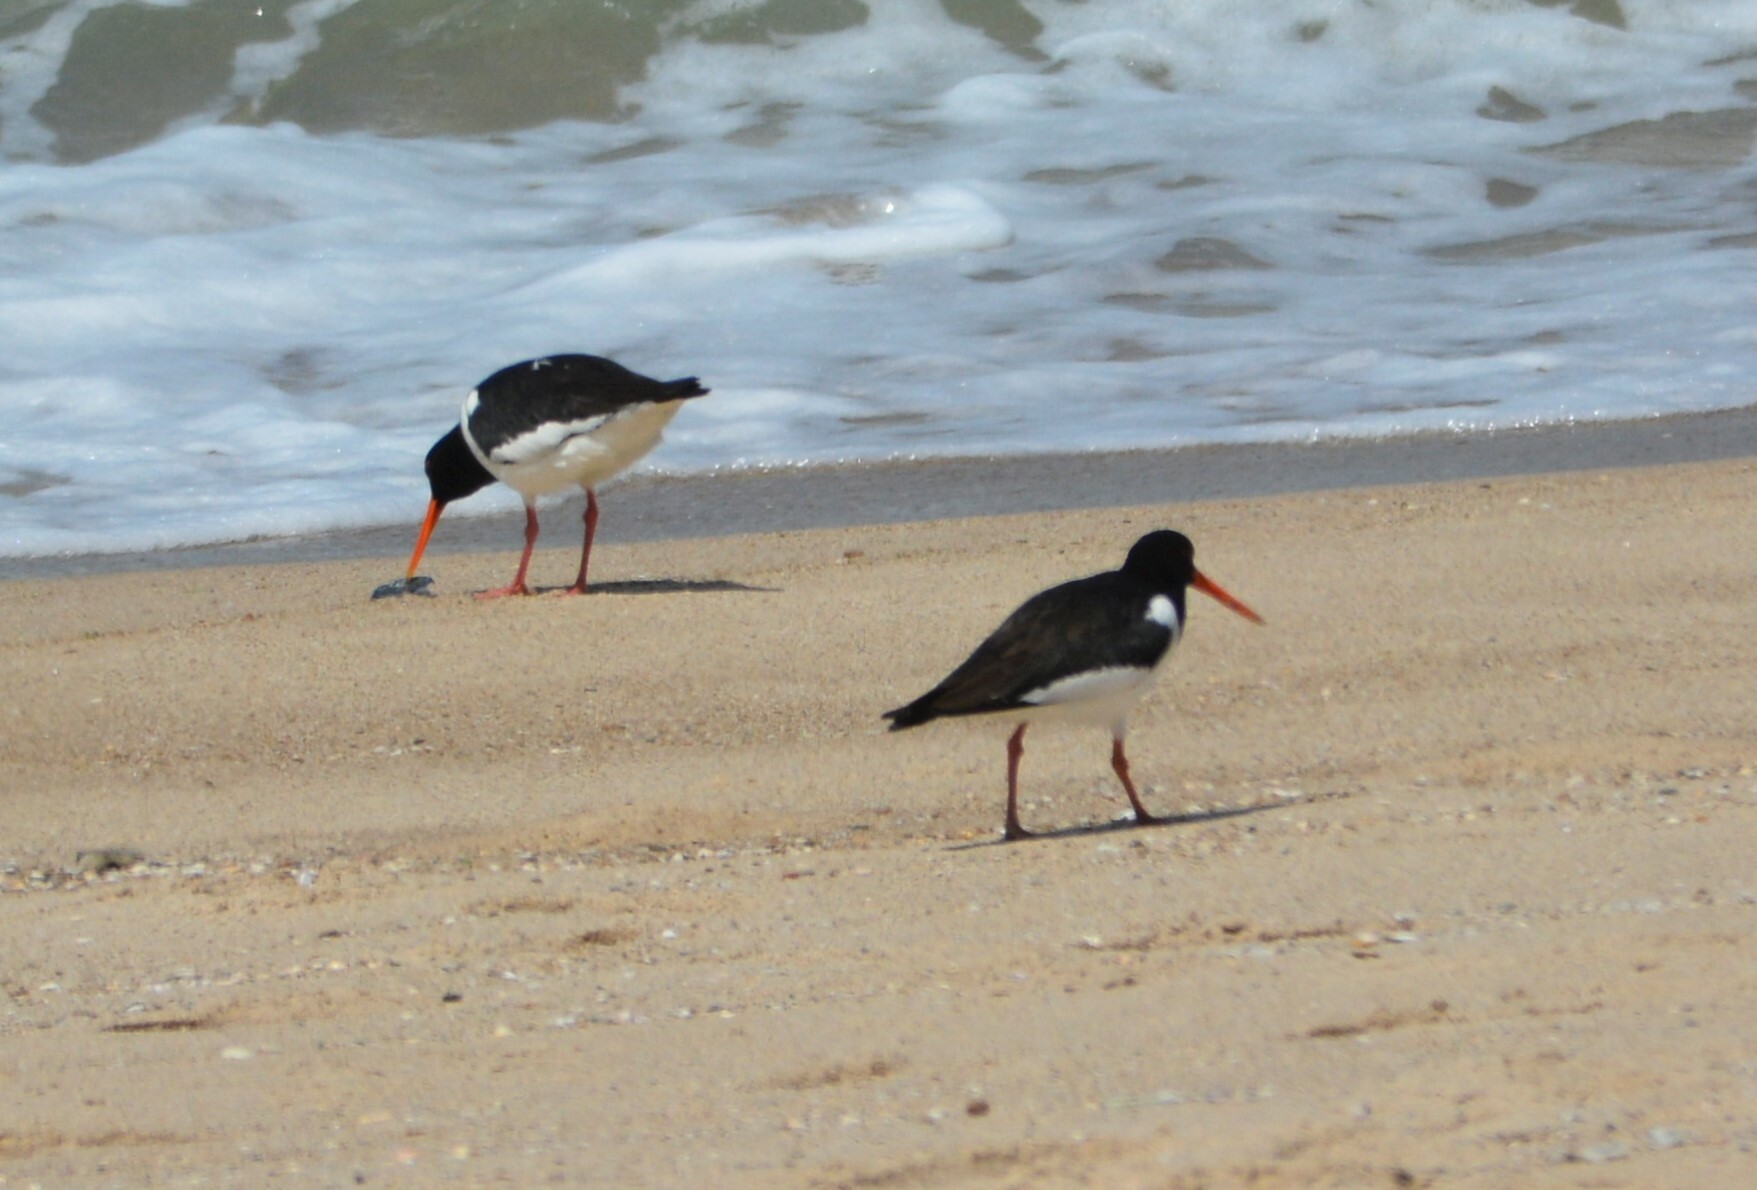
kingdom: Animalia
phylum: Chordata
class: Aves
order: Charadriiformes
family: Haematopodidae
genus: Haematopus
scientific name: Haematopus ostralegus
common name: Eurasian oystercatcher
